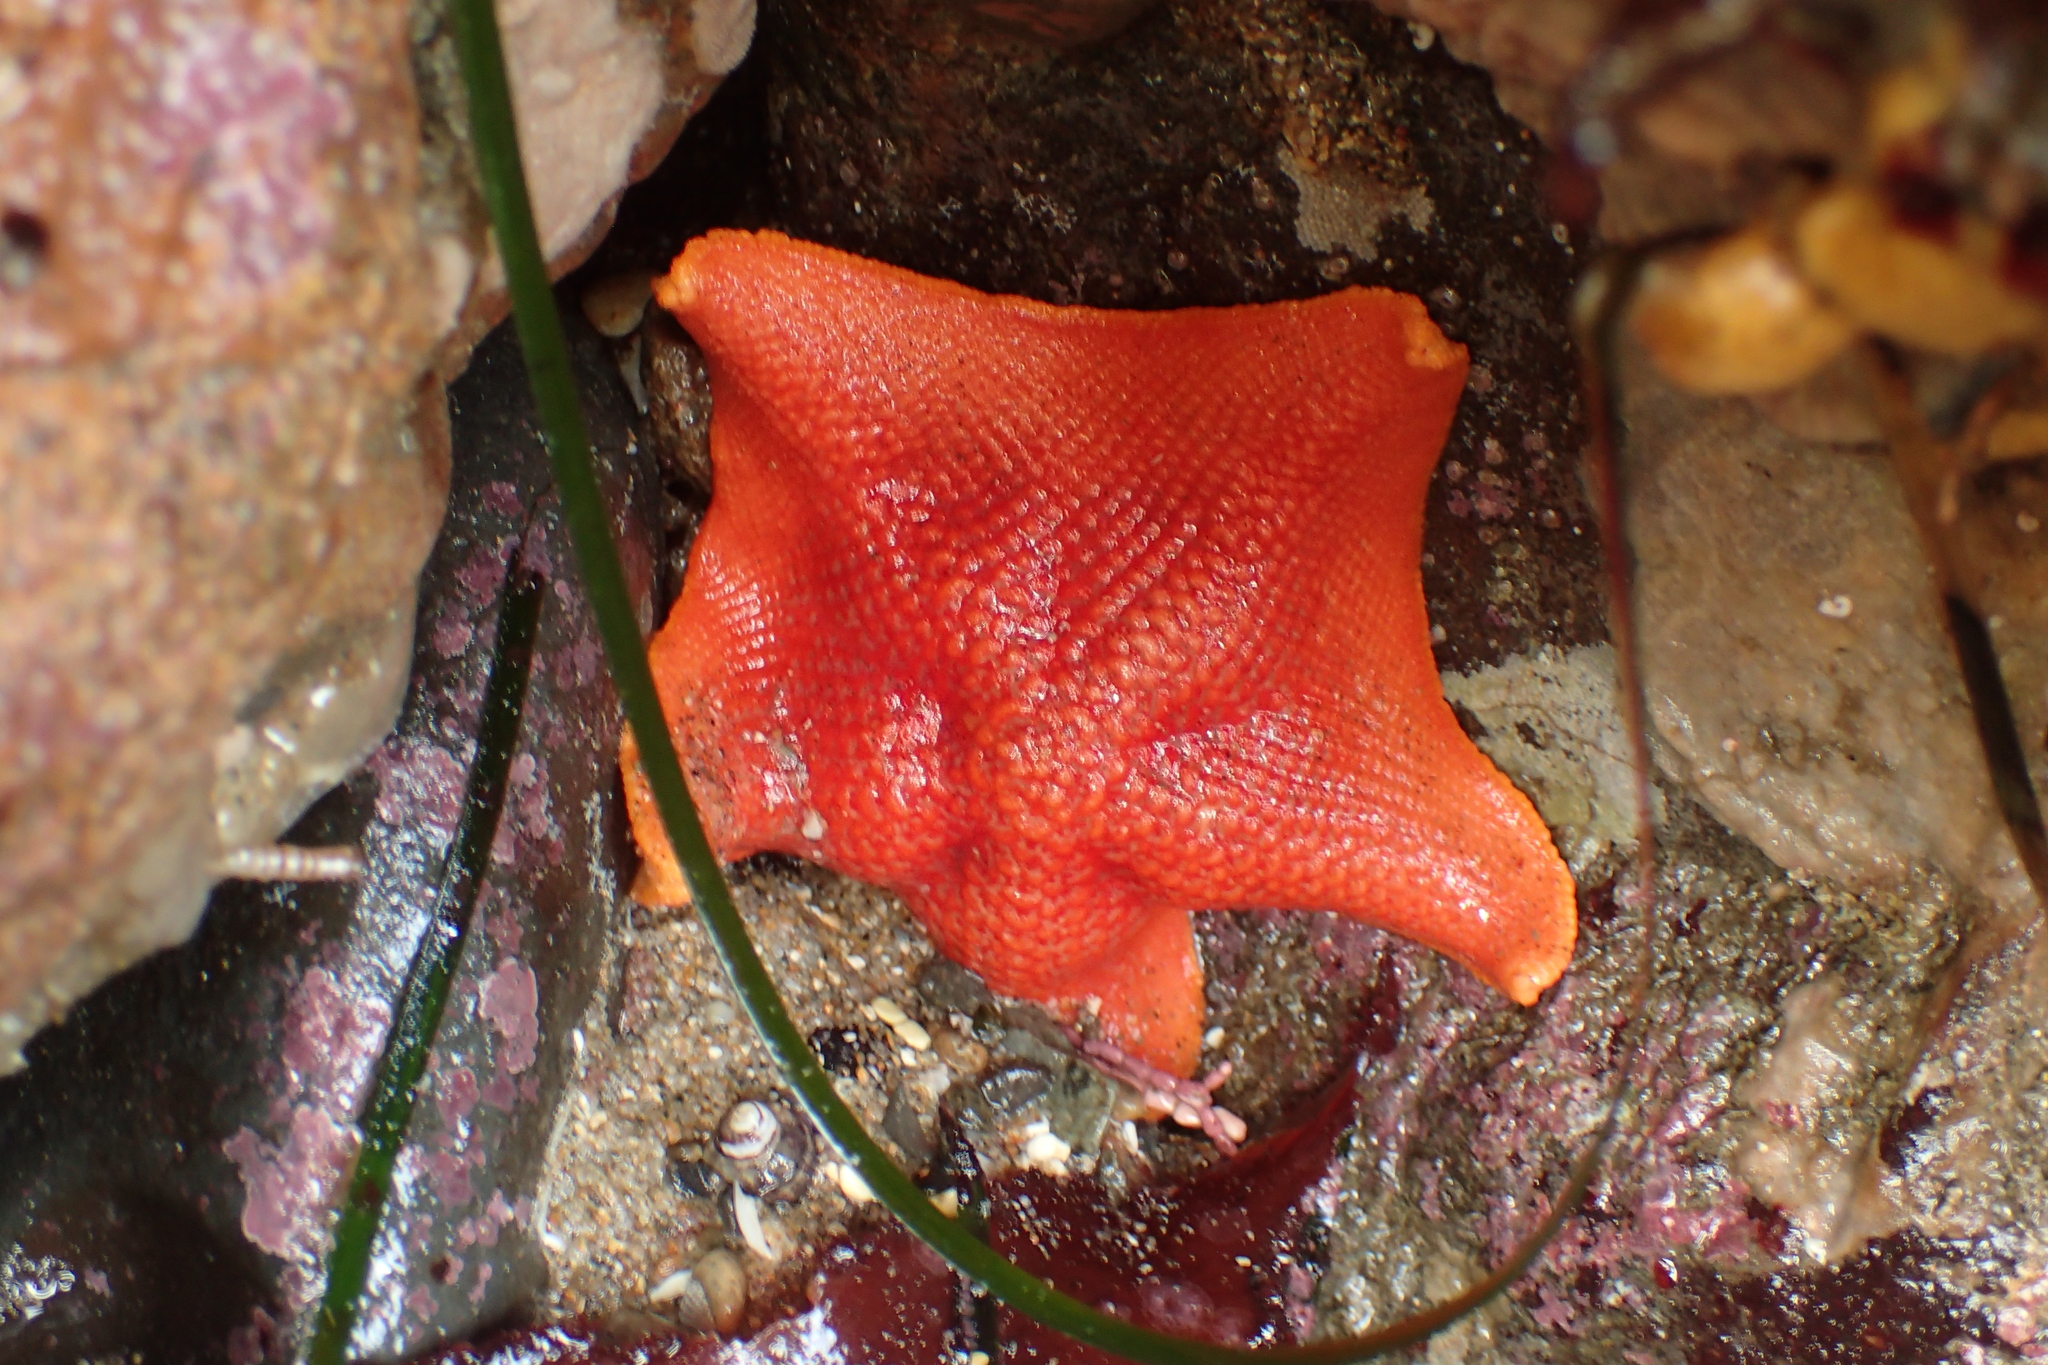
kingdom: Animalia
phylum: Echinodermata
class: Asteroidea
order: Valvatida
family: Asterinidae
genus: Patiria
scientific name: Patiria miniata
